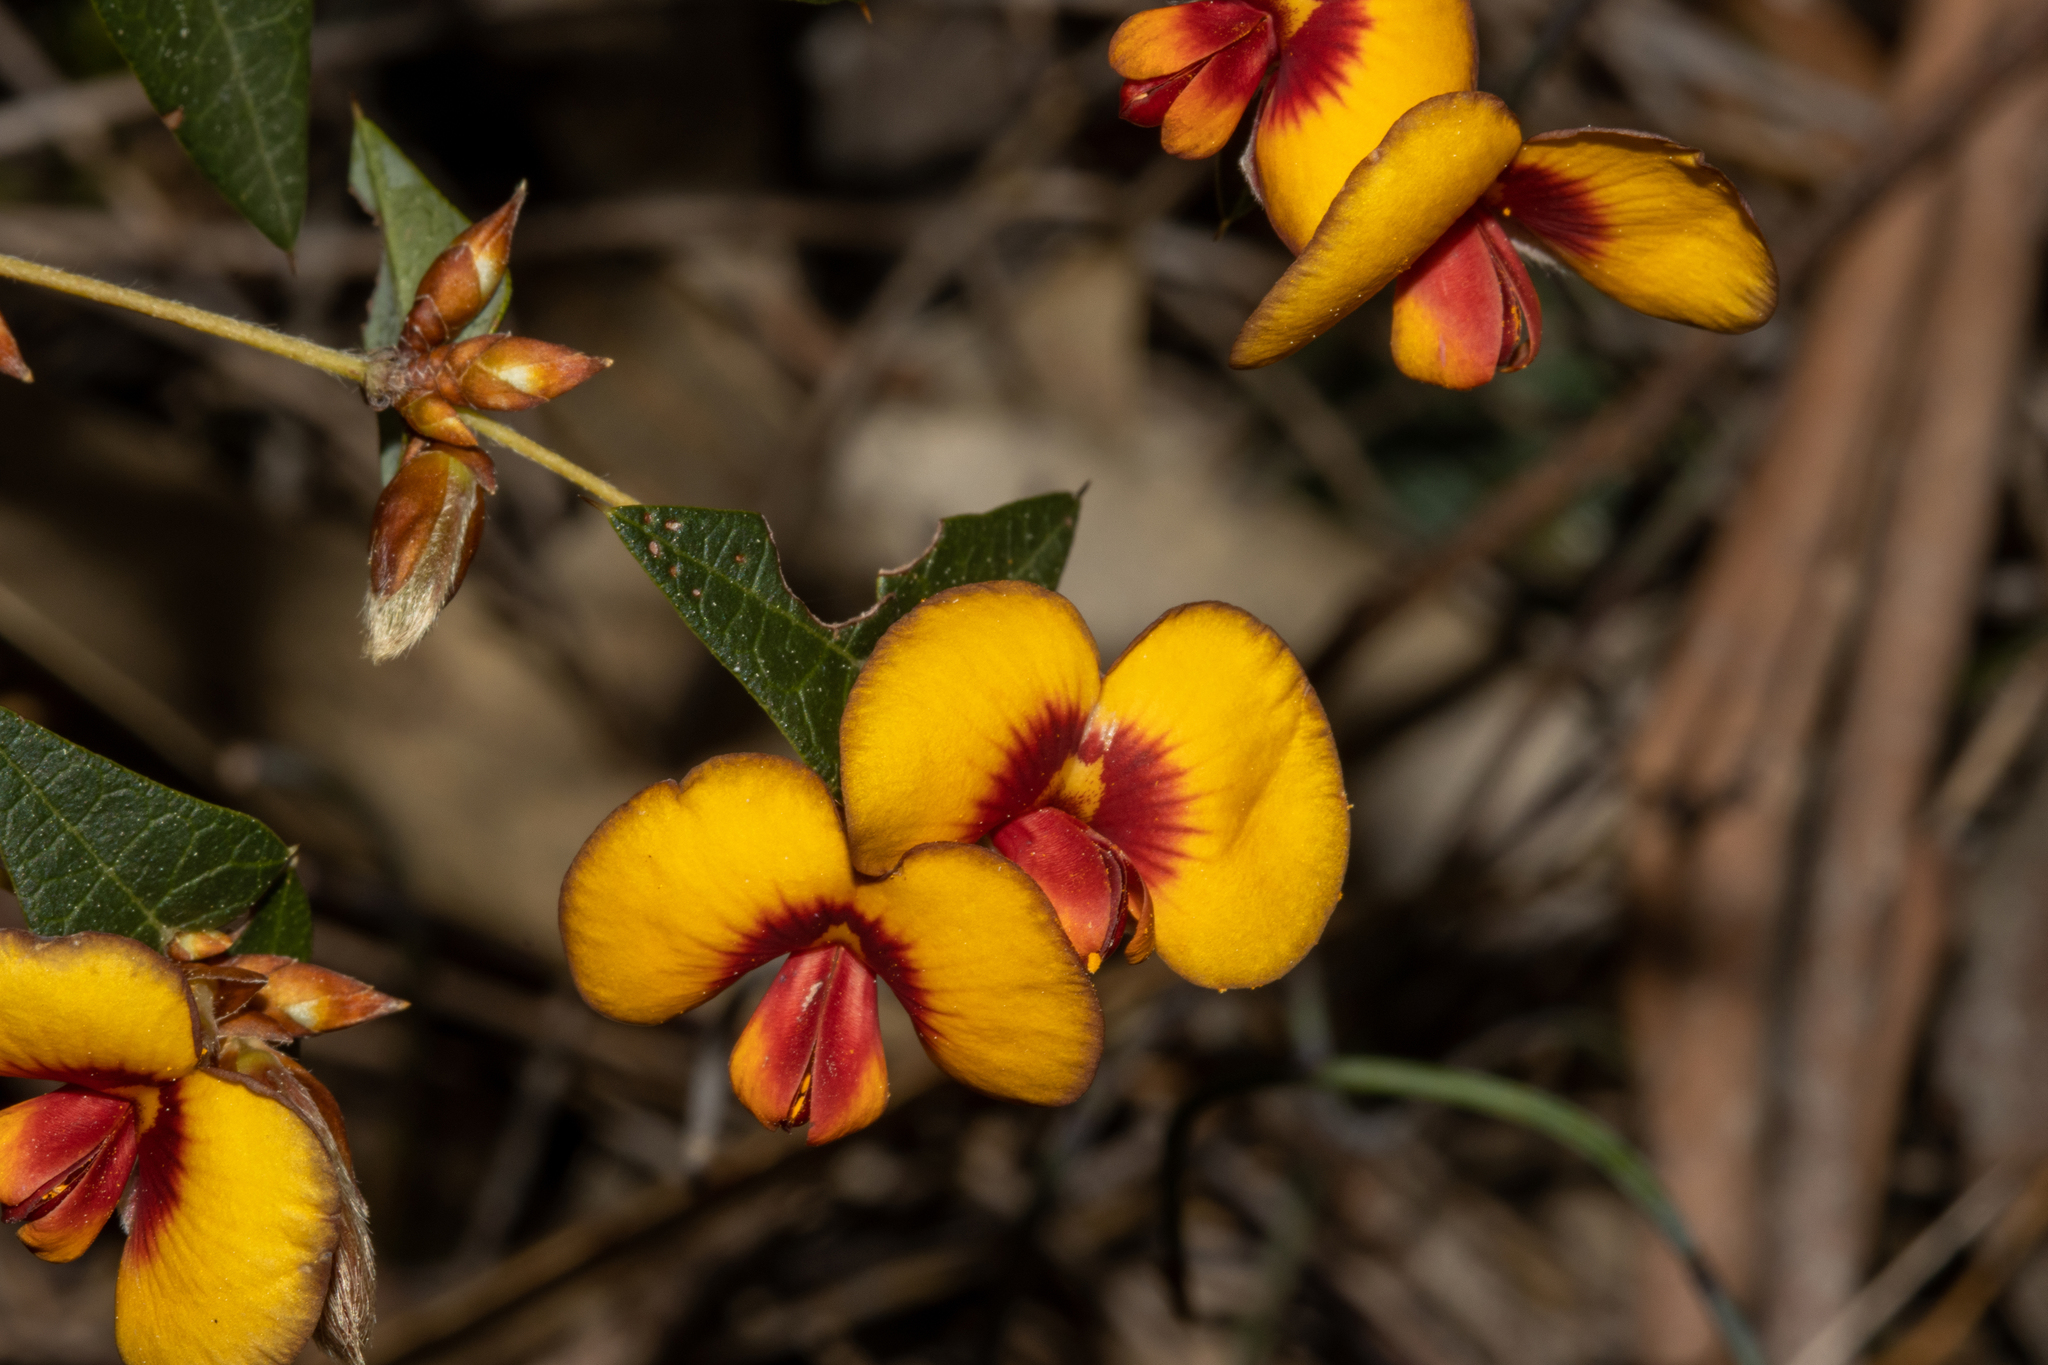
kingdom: Plantae
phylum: Tracheophyta
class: Magnoliopsida
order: Fabales
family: Fabaceae
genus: Platylobium
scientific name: Platylobium obtusangulum
